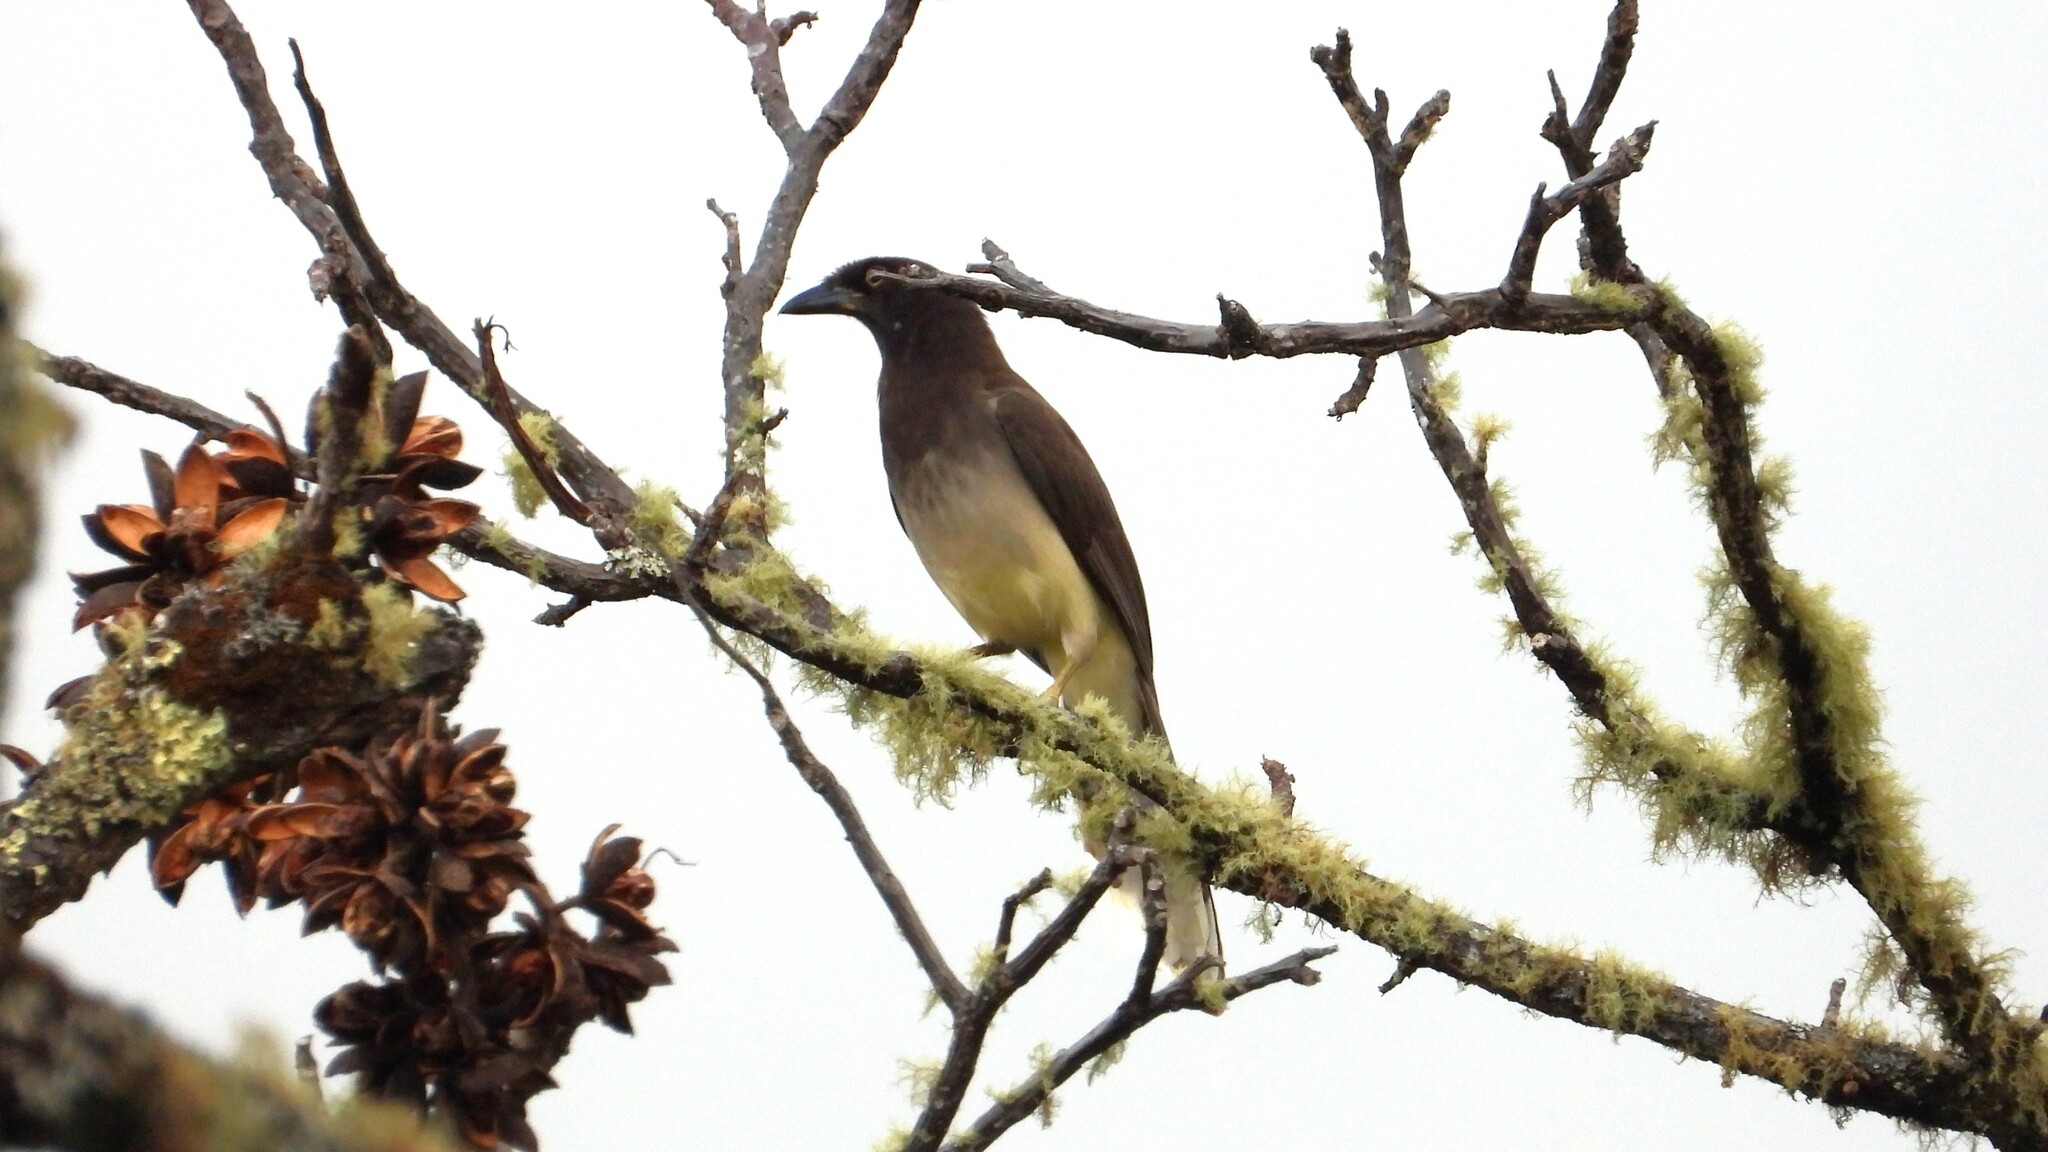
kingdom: Animalia
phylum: Chordata
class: Aves
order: Passeriformes
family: Corvidae
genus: Psilorhinus
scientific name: Psilorhinus morio
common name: Brown jay
